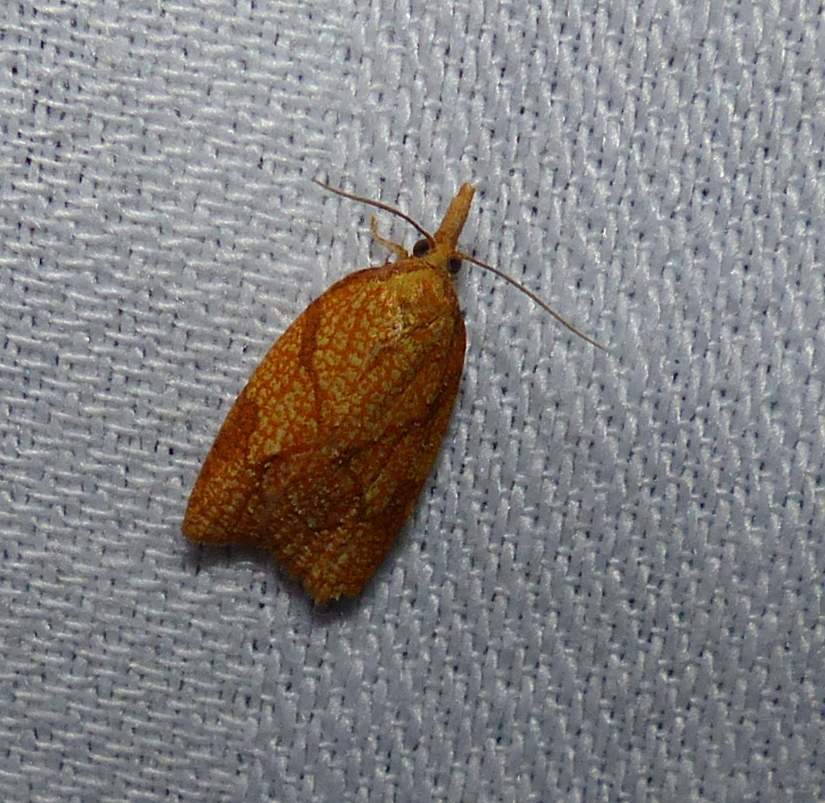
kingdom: Animalia
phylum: Arthropoda
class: Insecta
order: Lepidoptera
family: Tortricidae
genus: Cenopis
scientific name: Cenopis reticulatana
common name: Reticulated fruitworm moth
